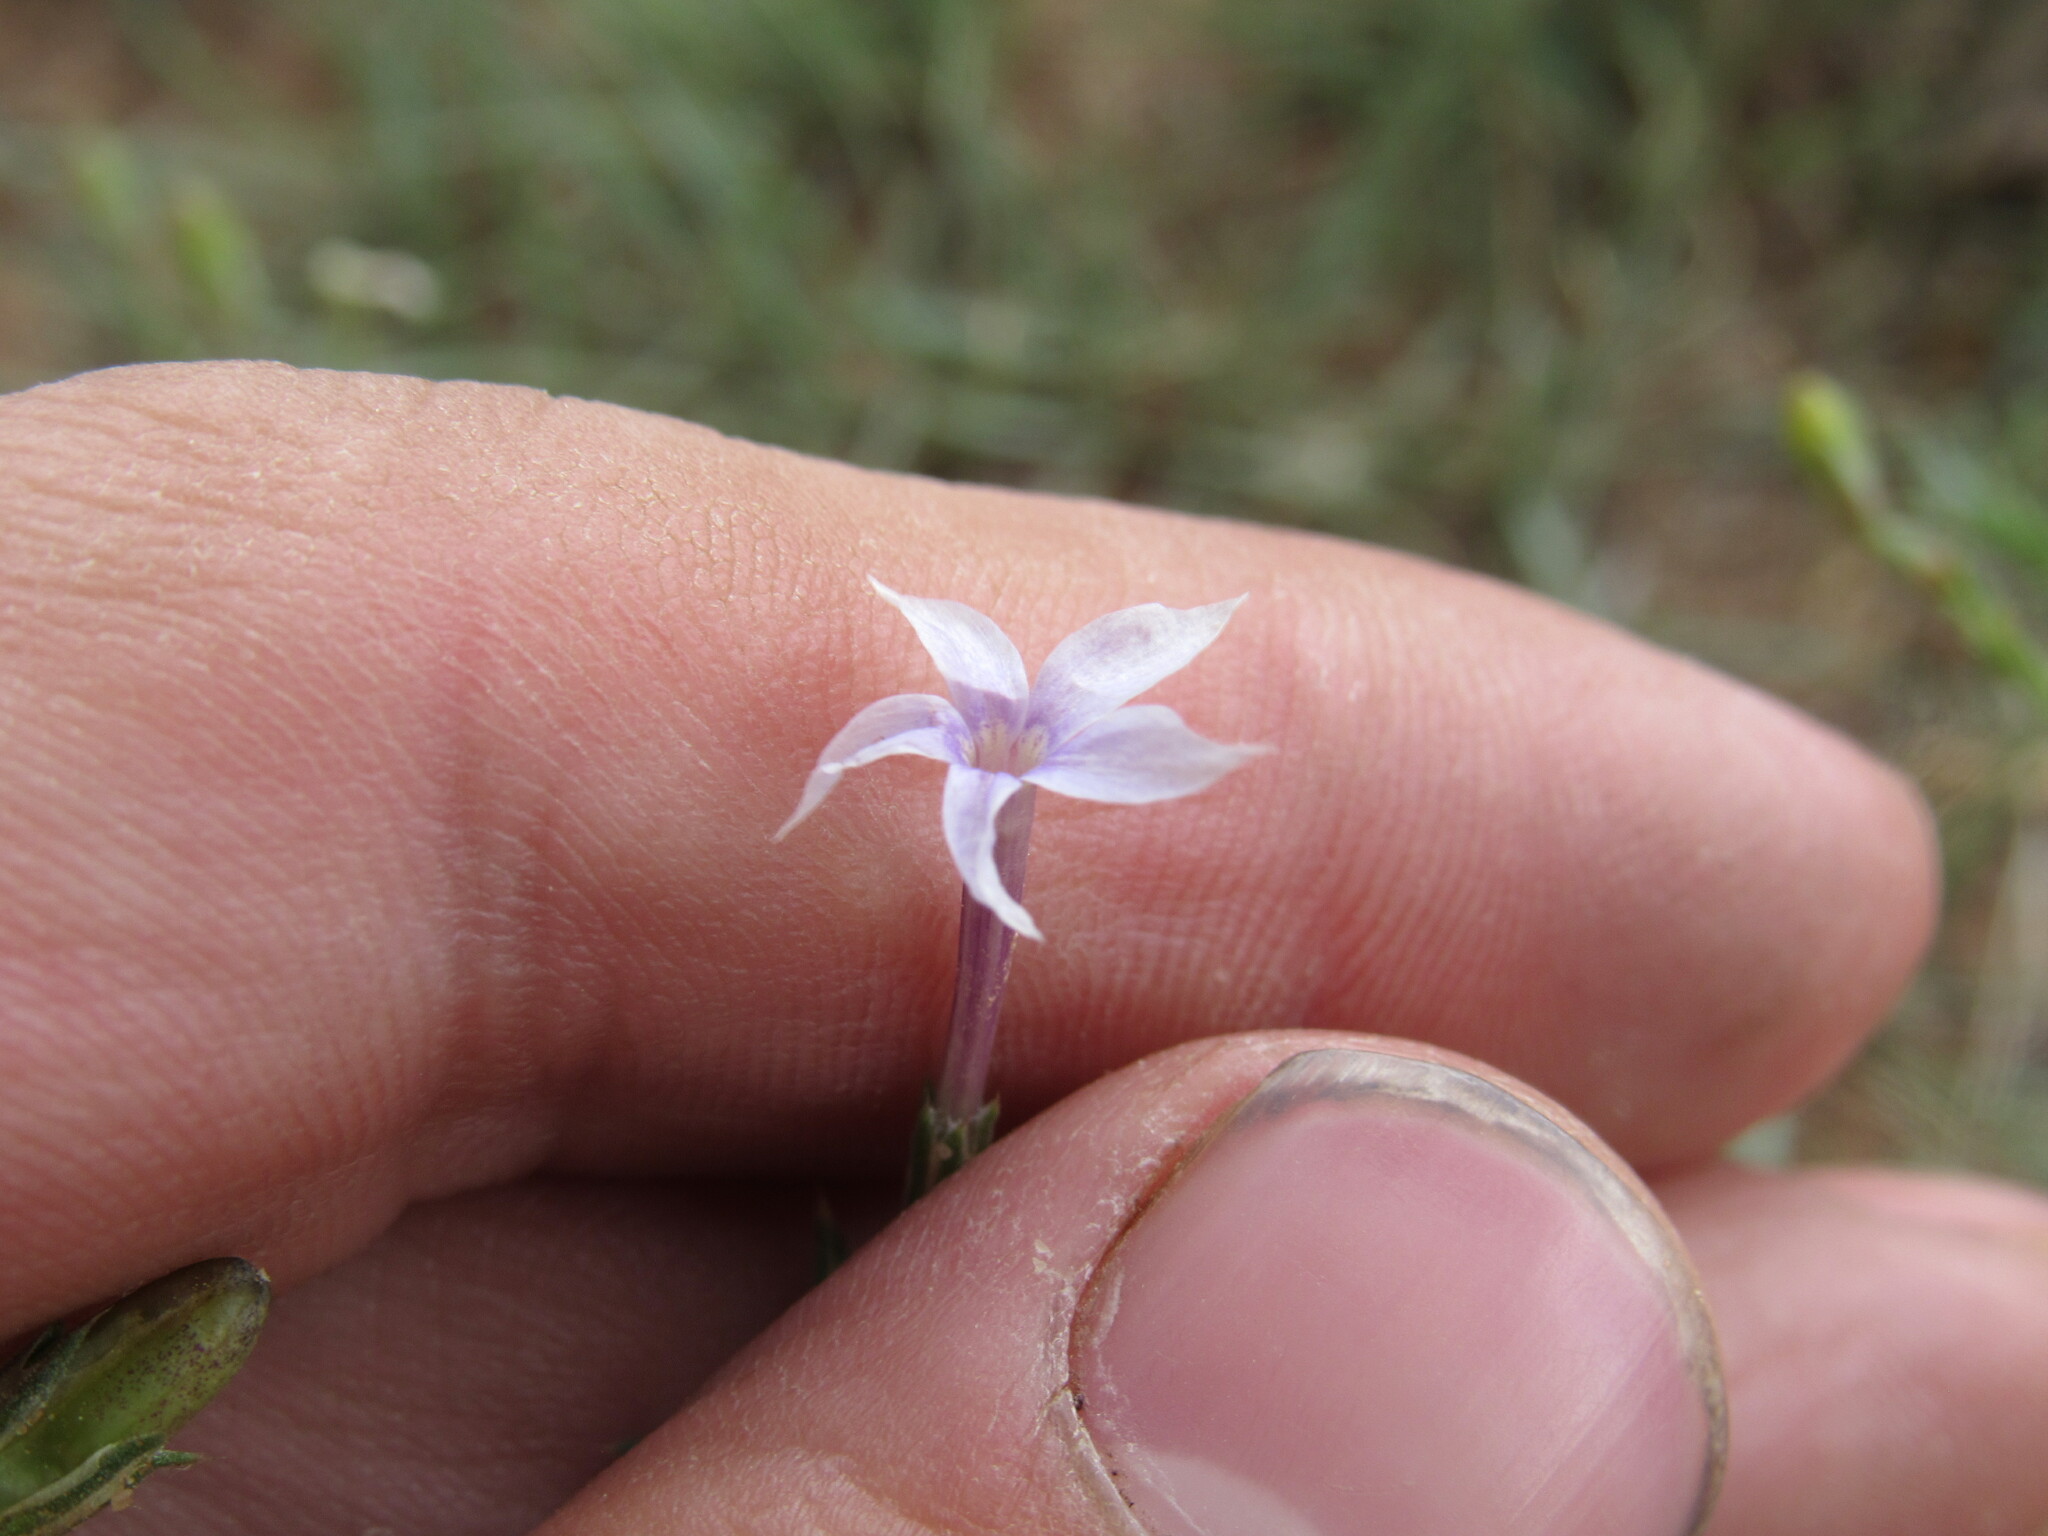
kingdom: Plantae
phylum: Tracheophyta
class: Magnoliopsida
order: Ericales
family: Polemoniaceae
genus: Ipomopsis
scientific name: Ipomopsis laxiflora
